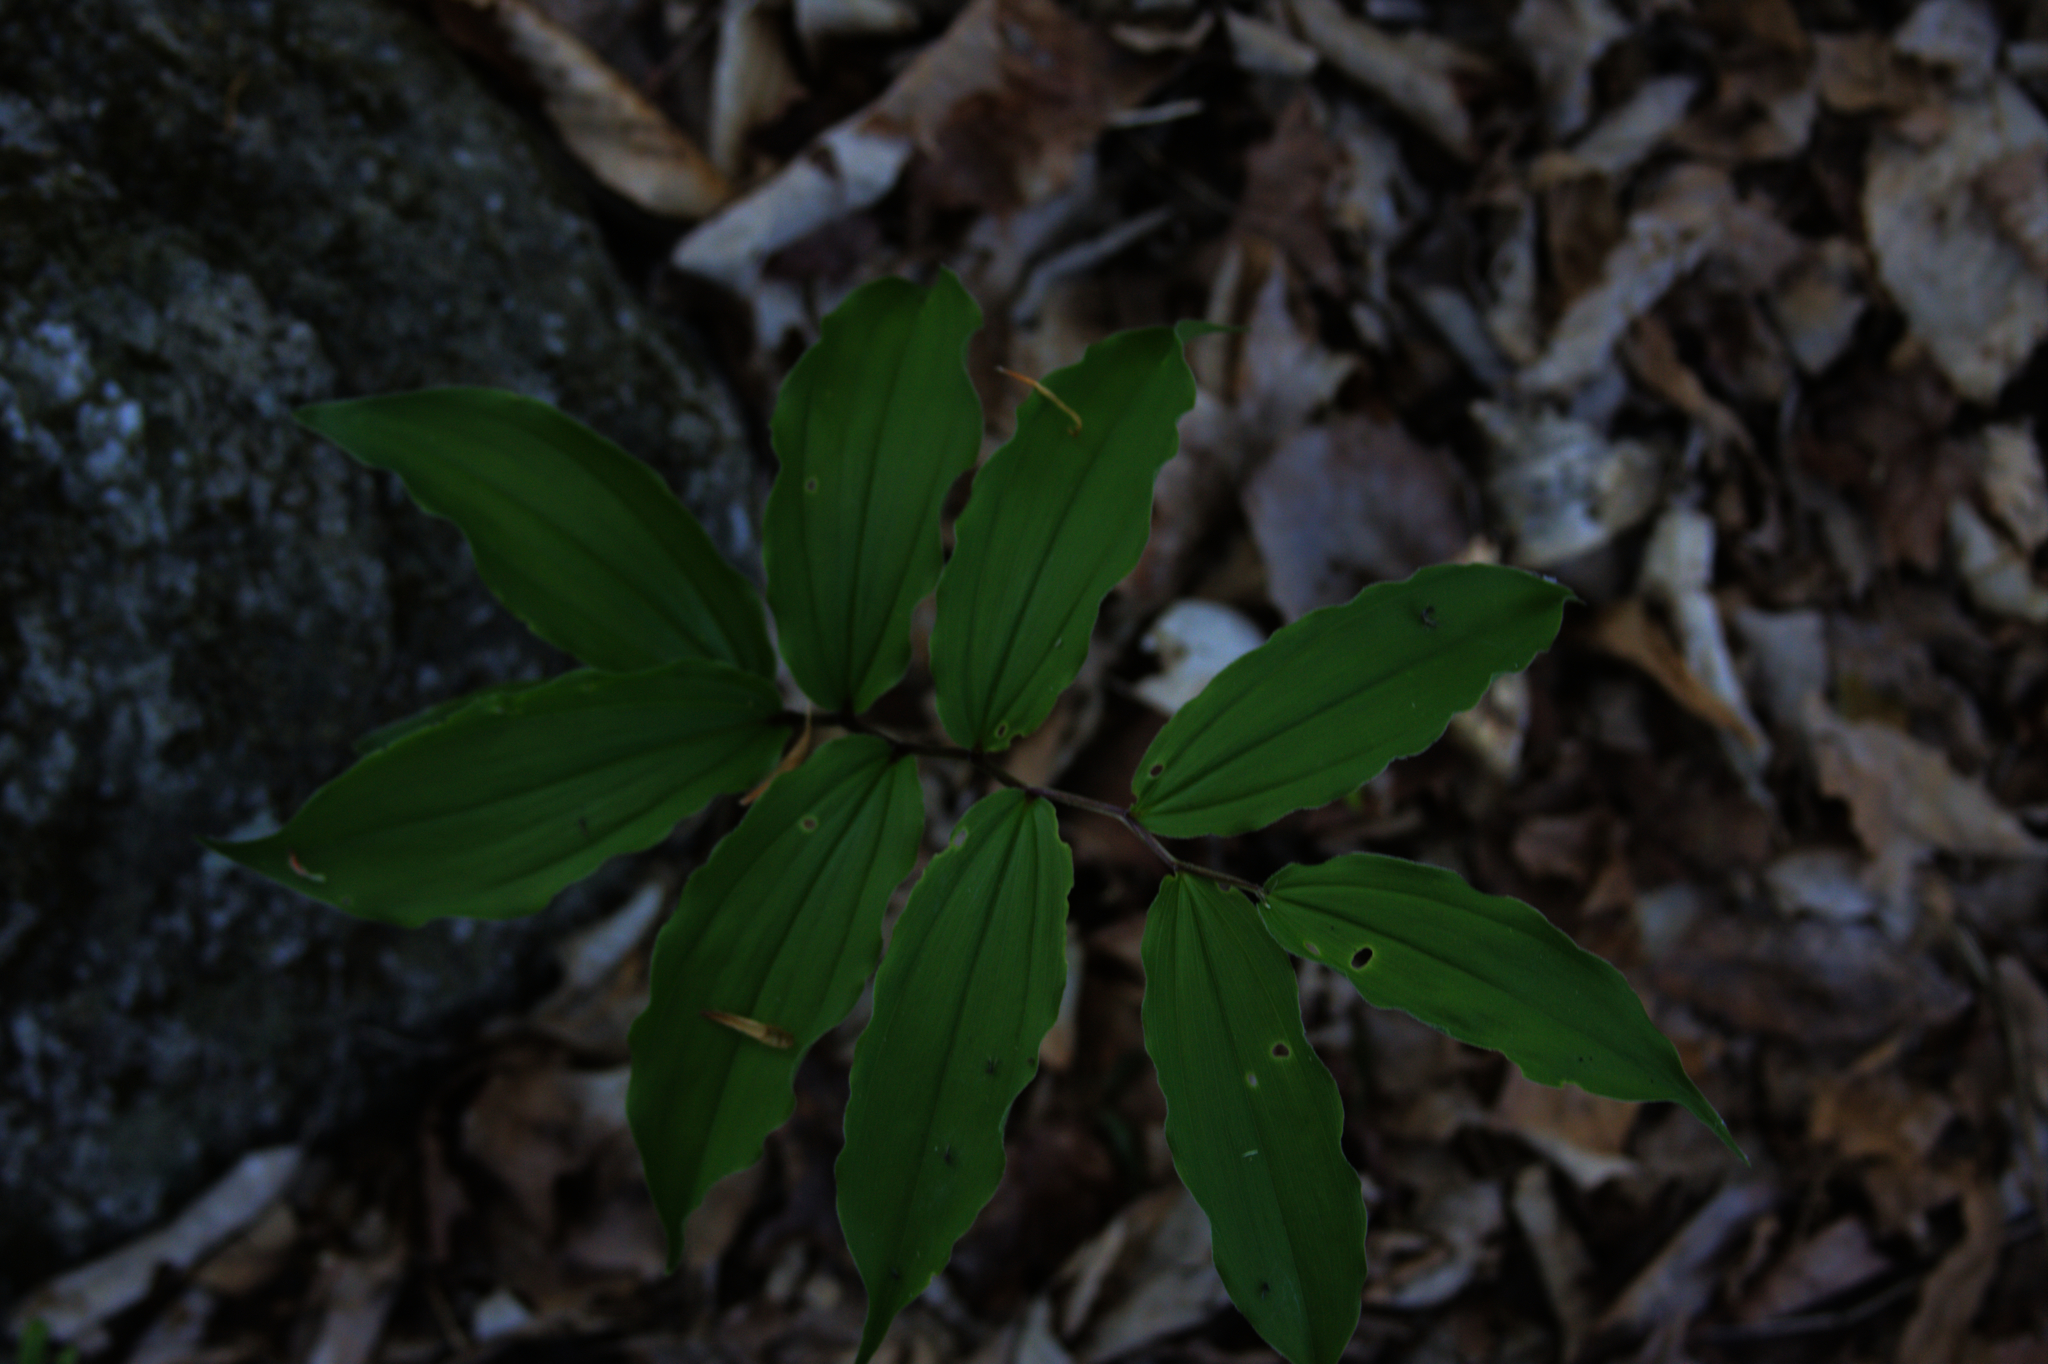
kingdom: Plantae
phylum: Tracheophyta
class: Liliopsida
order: Asparagales
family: Asparagaceae
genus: Maianthemum
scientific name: Maianthemum racemosum
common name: False spikenard
